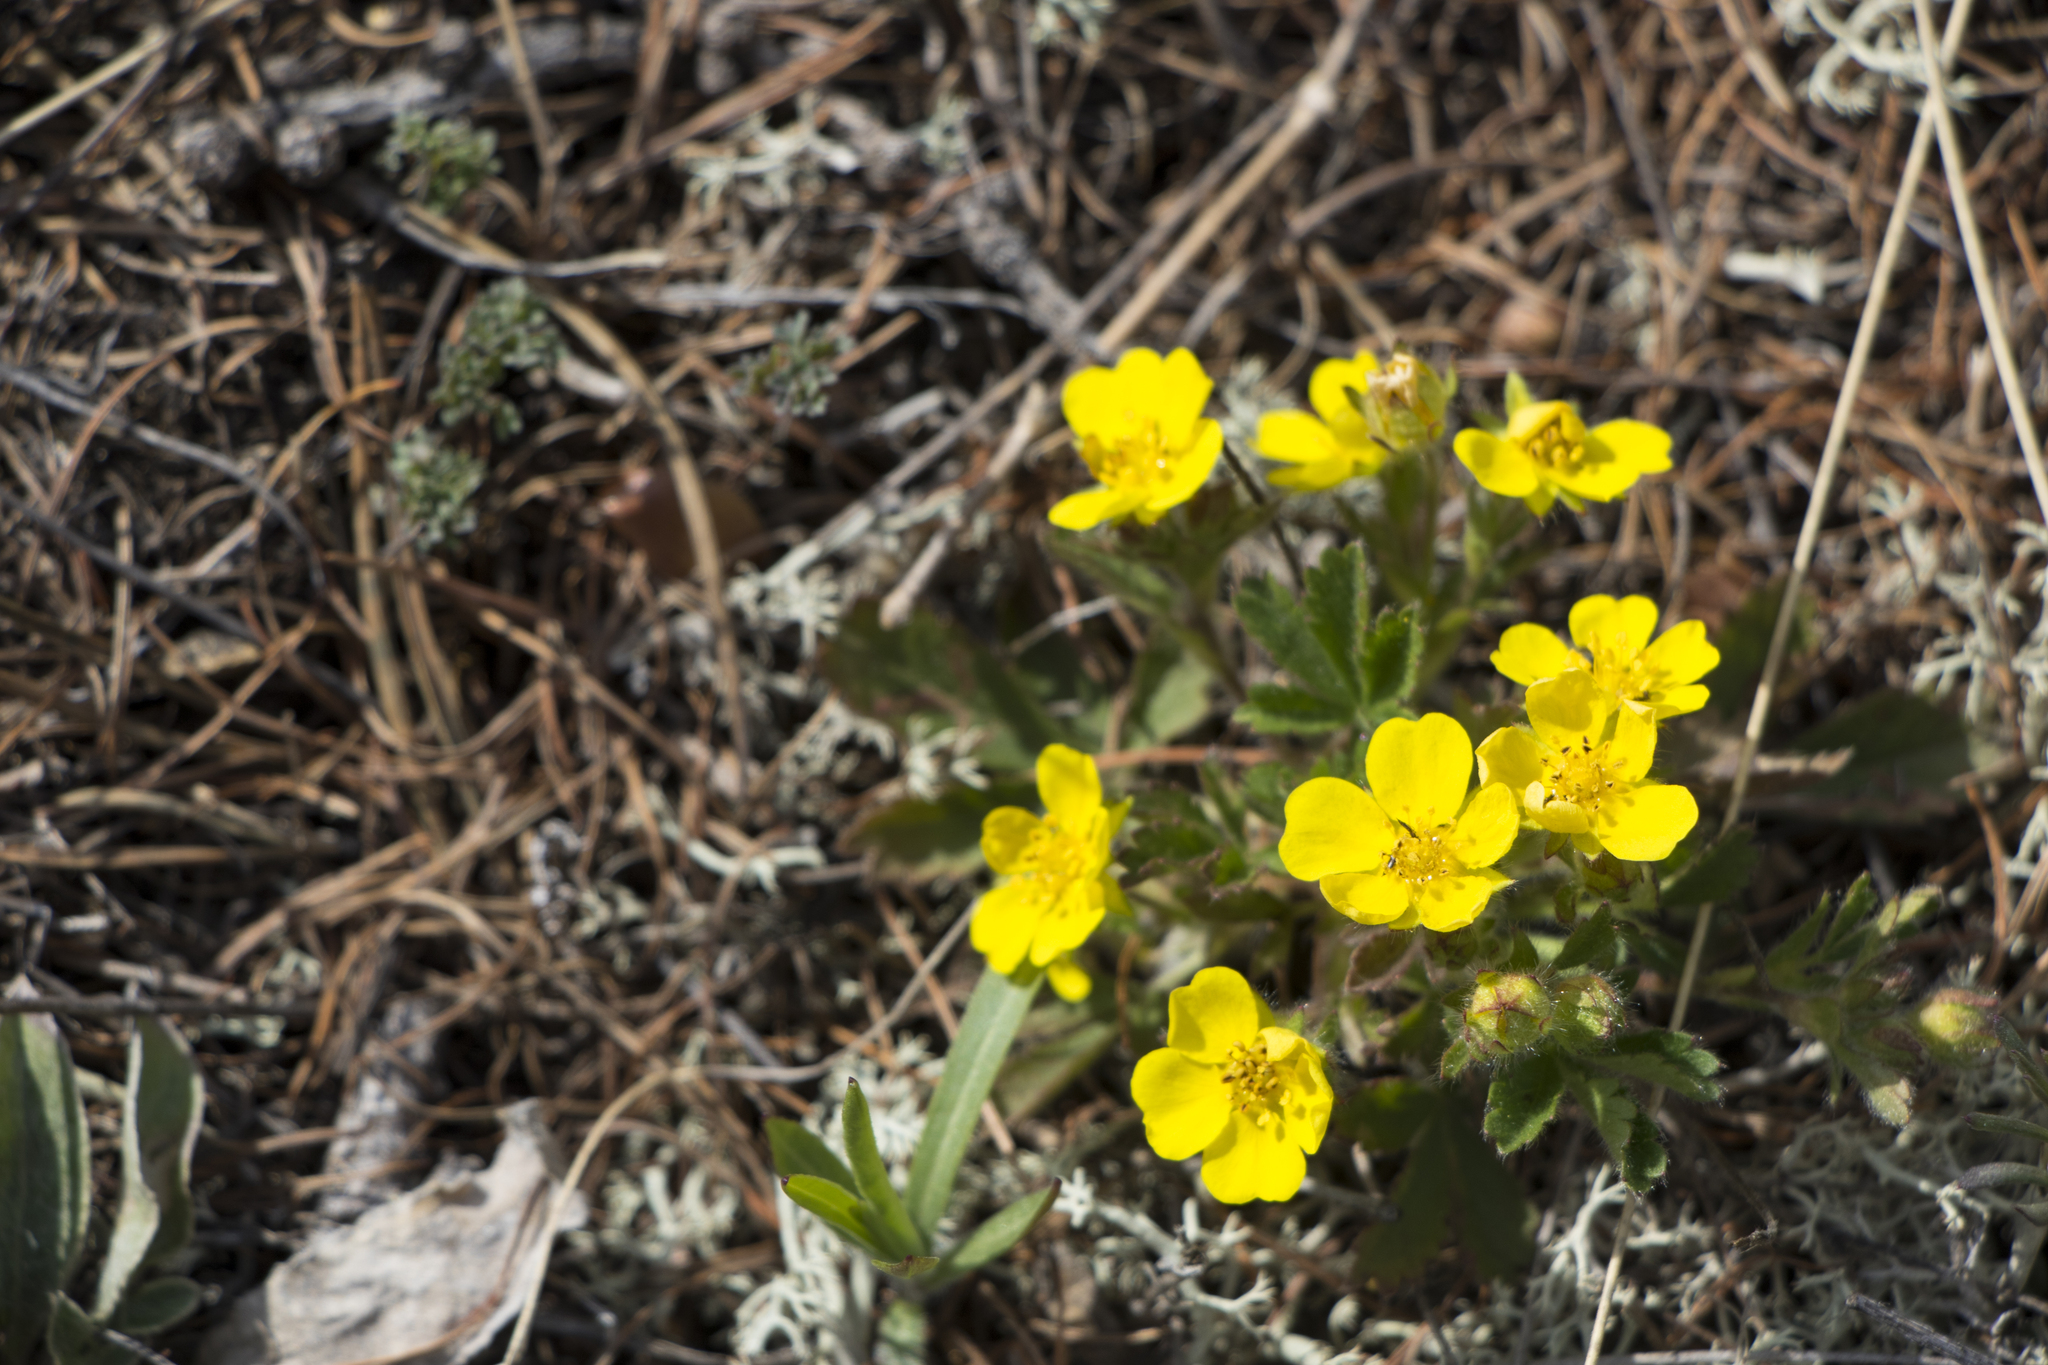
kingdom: Plantae
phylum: Tracheophyta
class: Magnoliopsida
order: Rosales
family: Rosaceae
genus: Potentilla
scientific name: Potentilla humifusa
